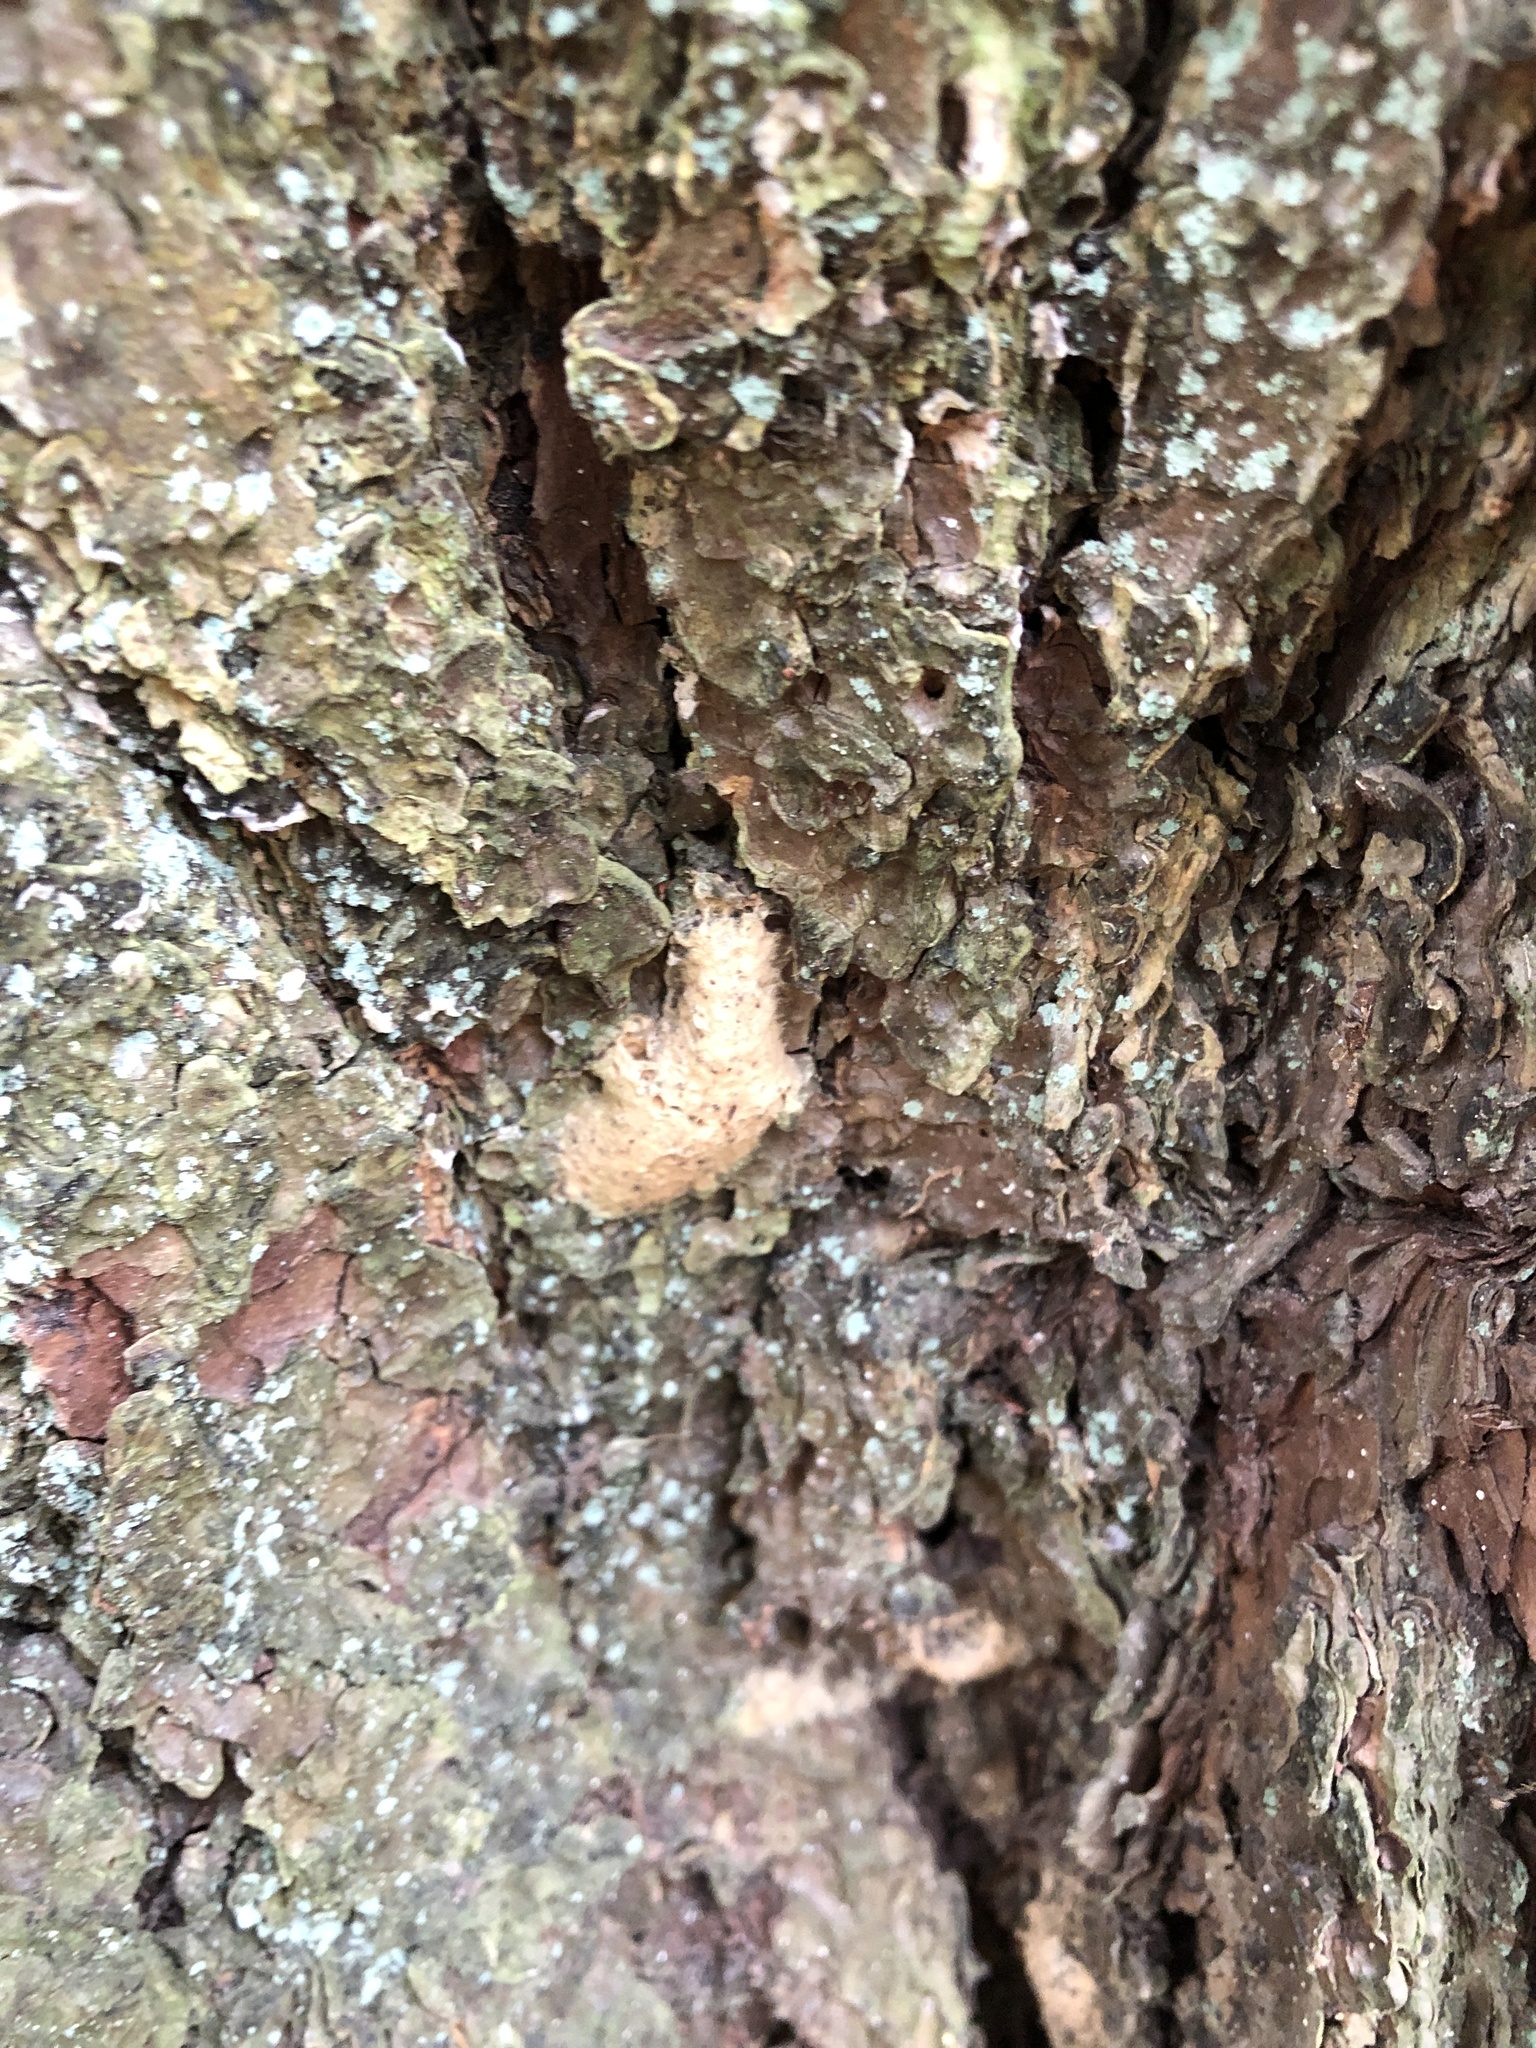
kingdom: Animalia
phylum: Arthropoda
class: Insecta
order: Lepidoptera
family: Erebidae
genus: Lymantria
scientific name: Lymantria dispar
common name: Gypsy moth
